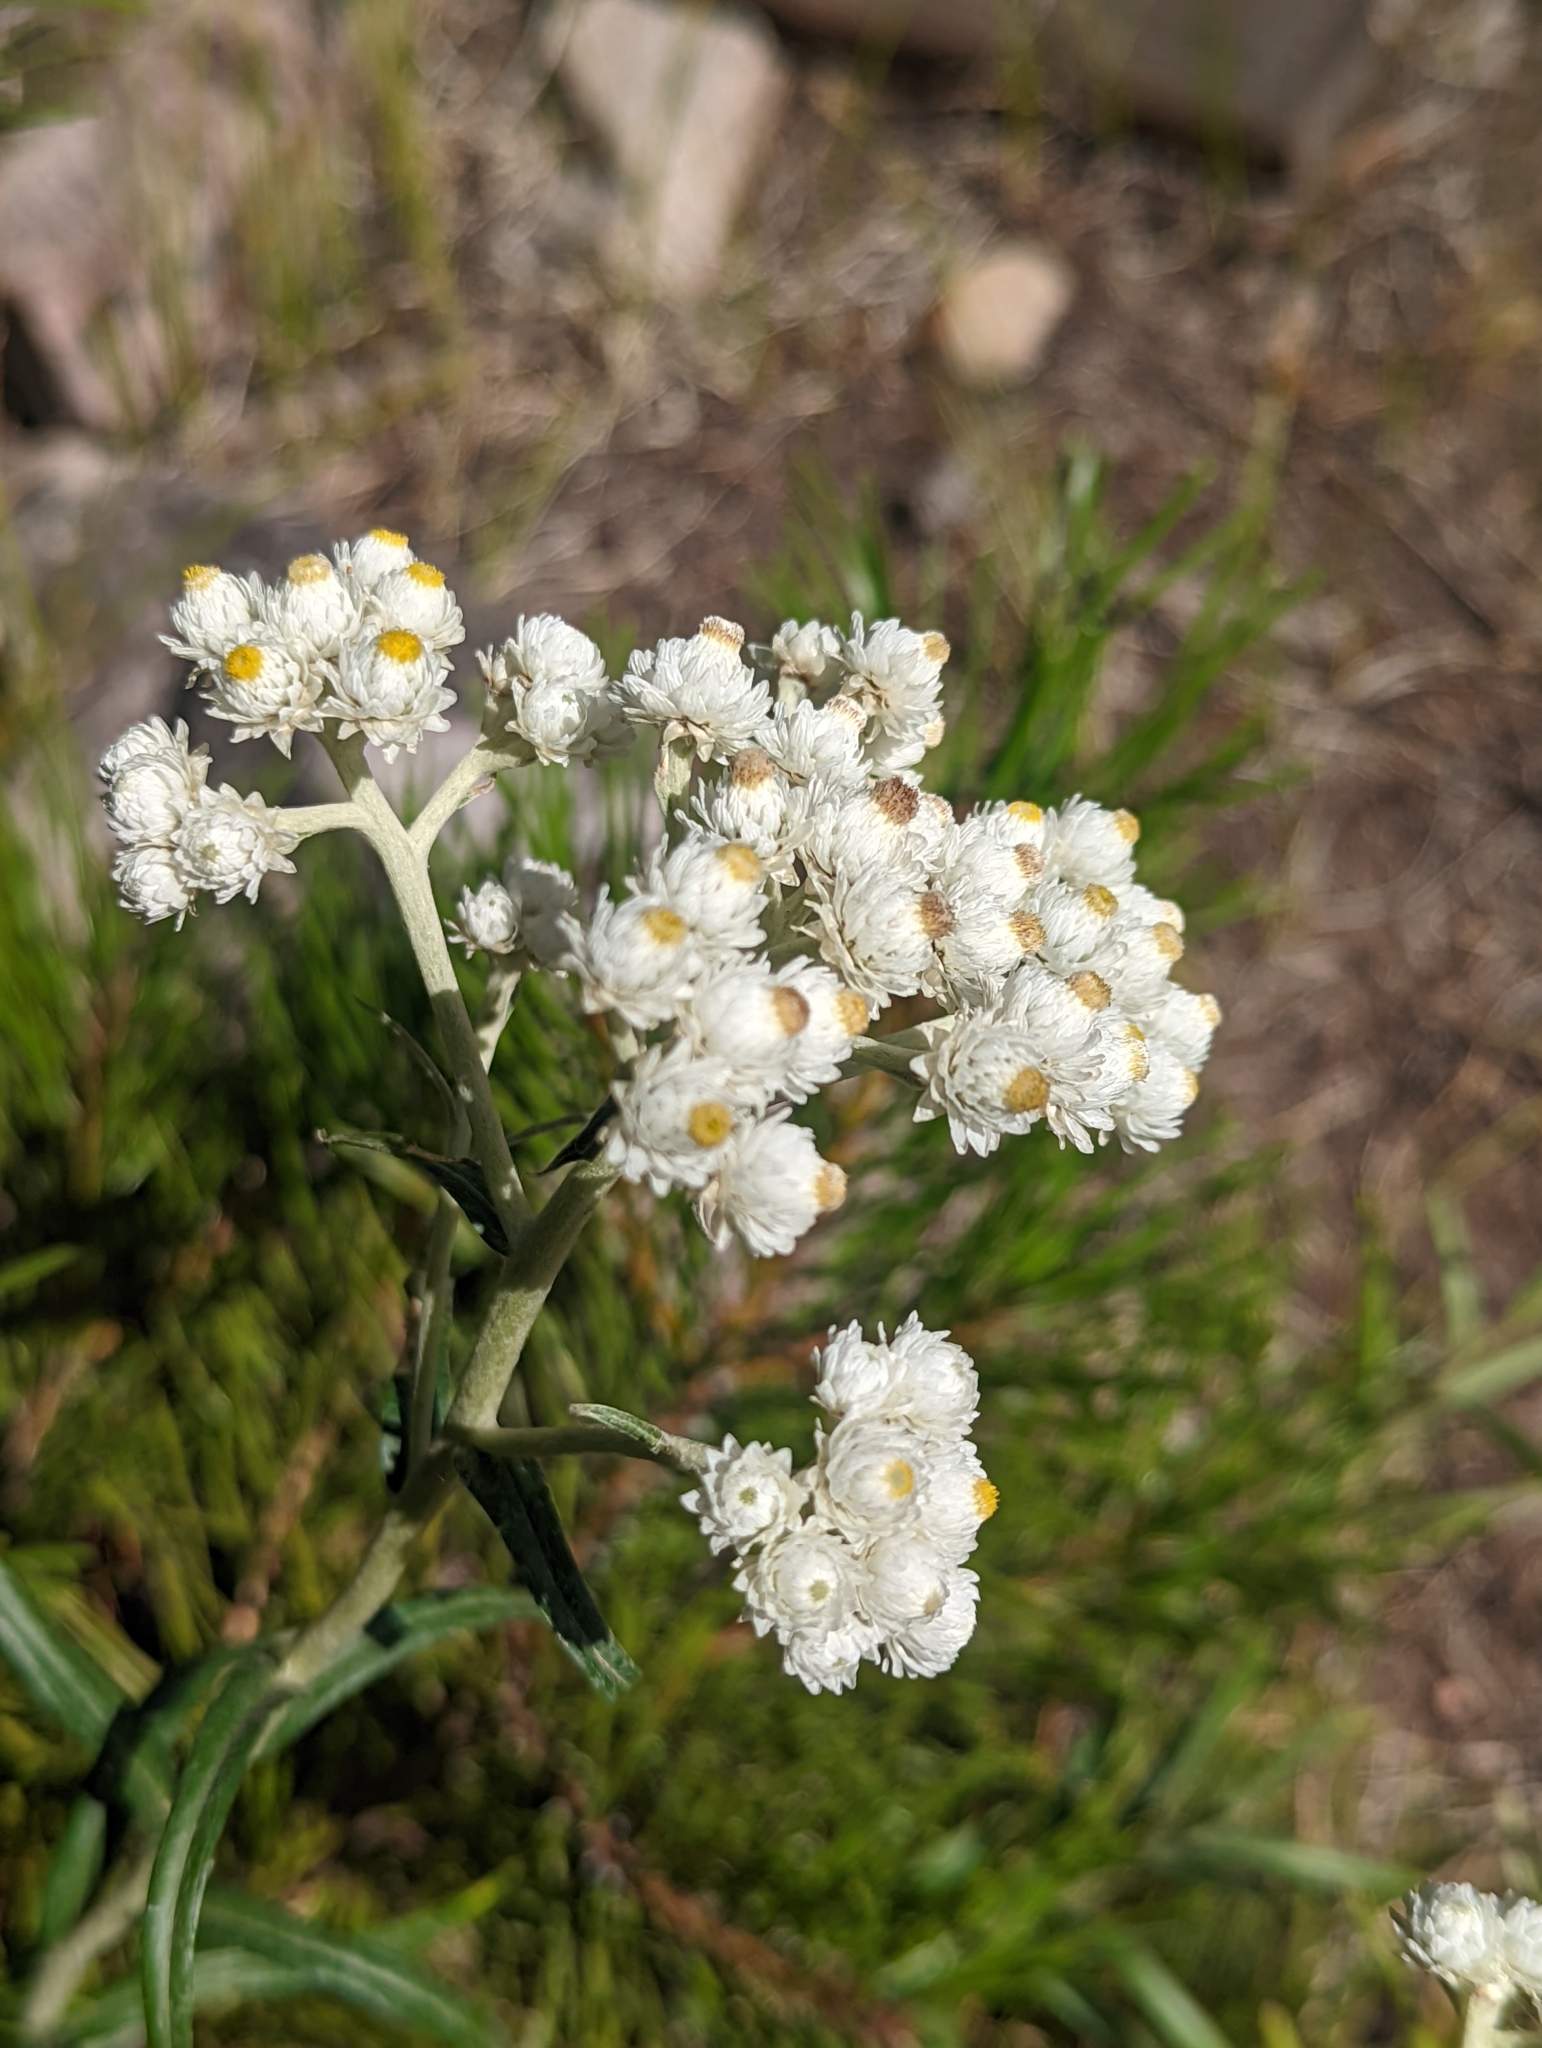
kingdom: Plantae
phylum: Tracheophyta
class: Magnoliopsida
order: Asterales
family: Asteraceae
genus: Anaphalis
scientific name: Anaphalis margaritacea
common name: Pearly everlasting
